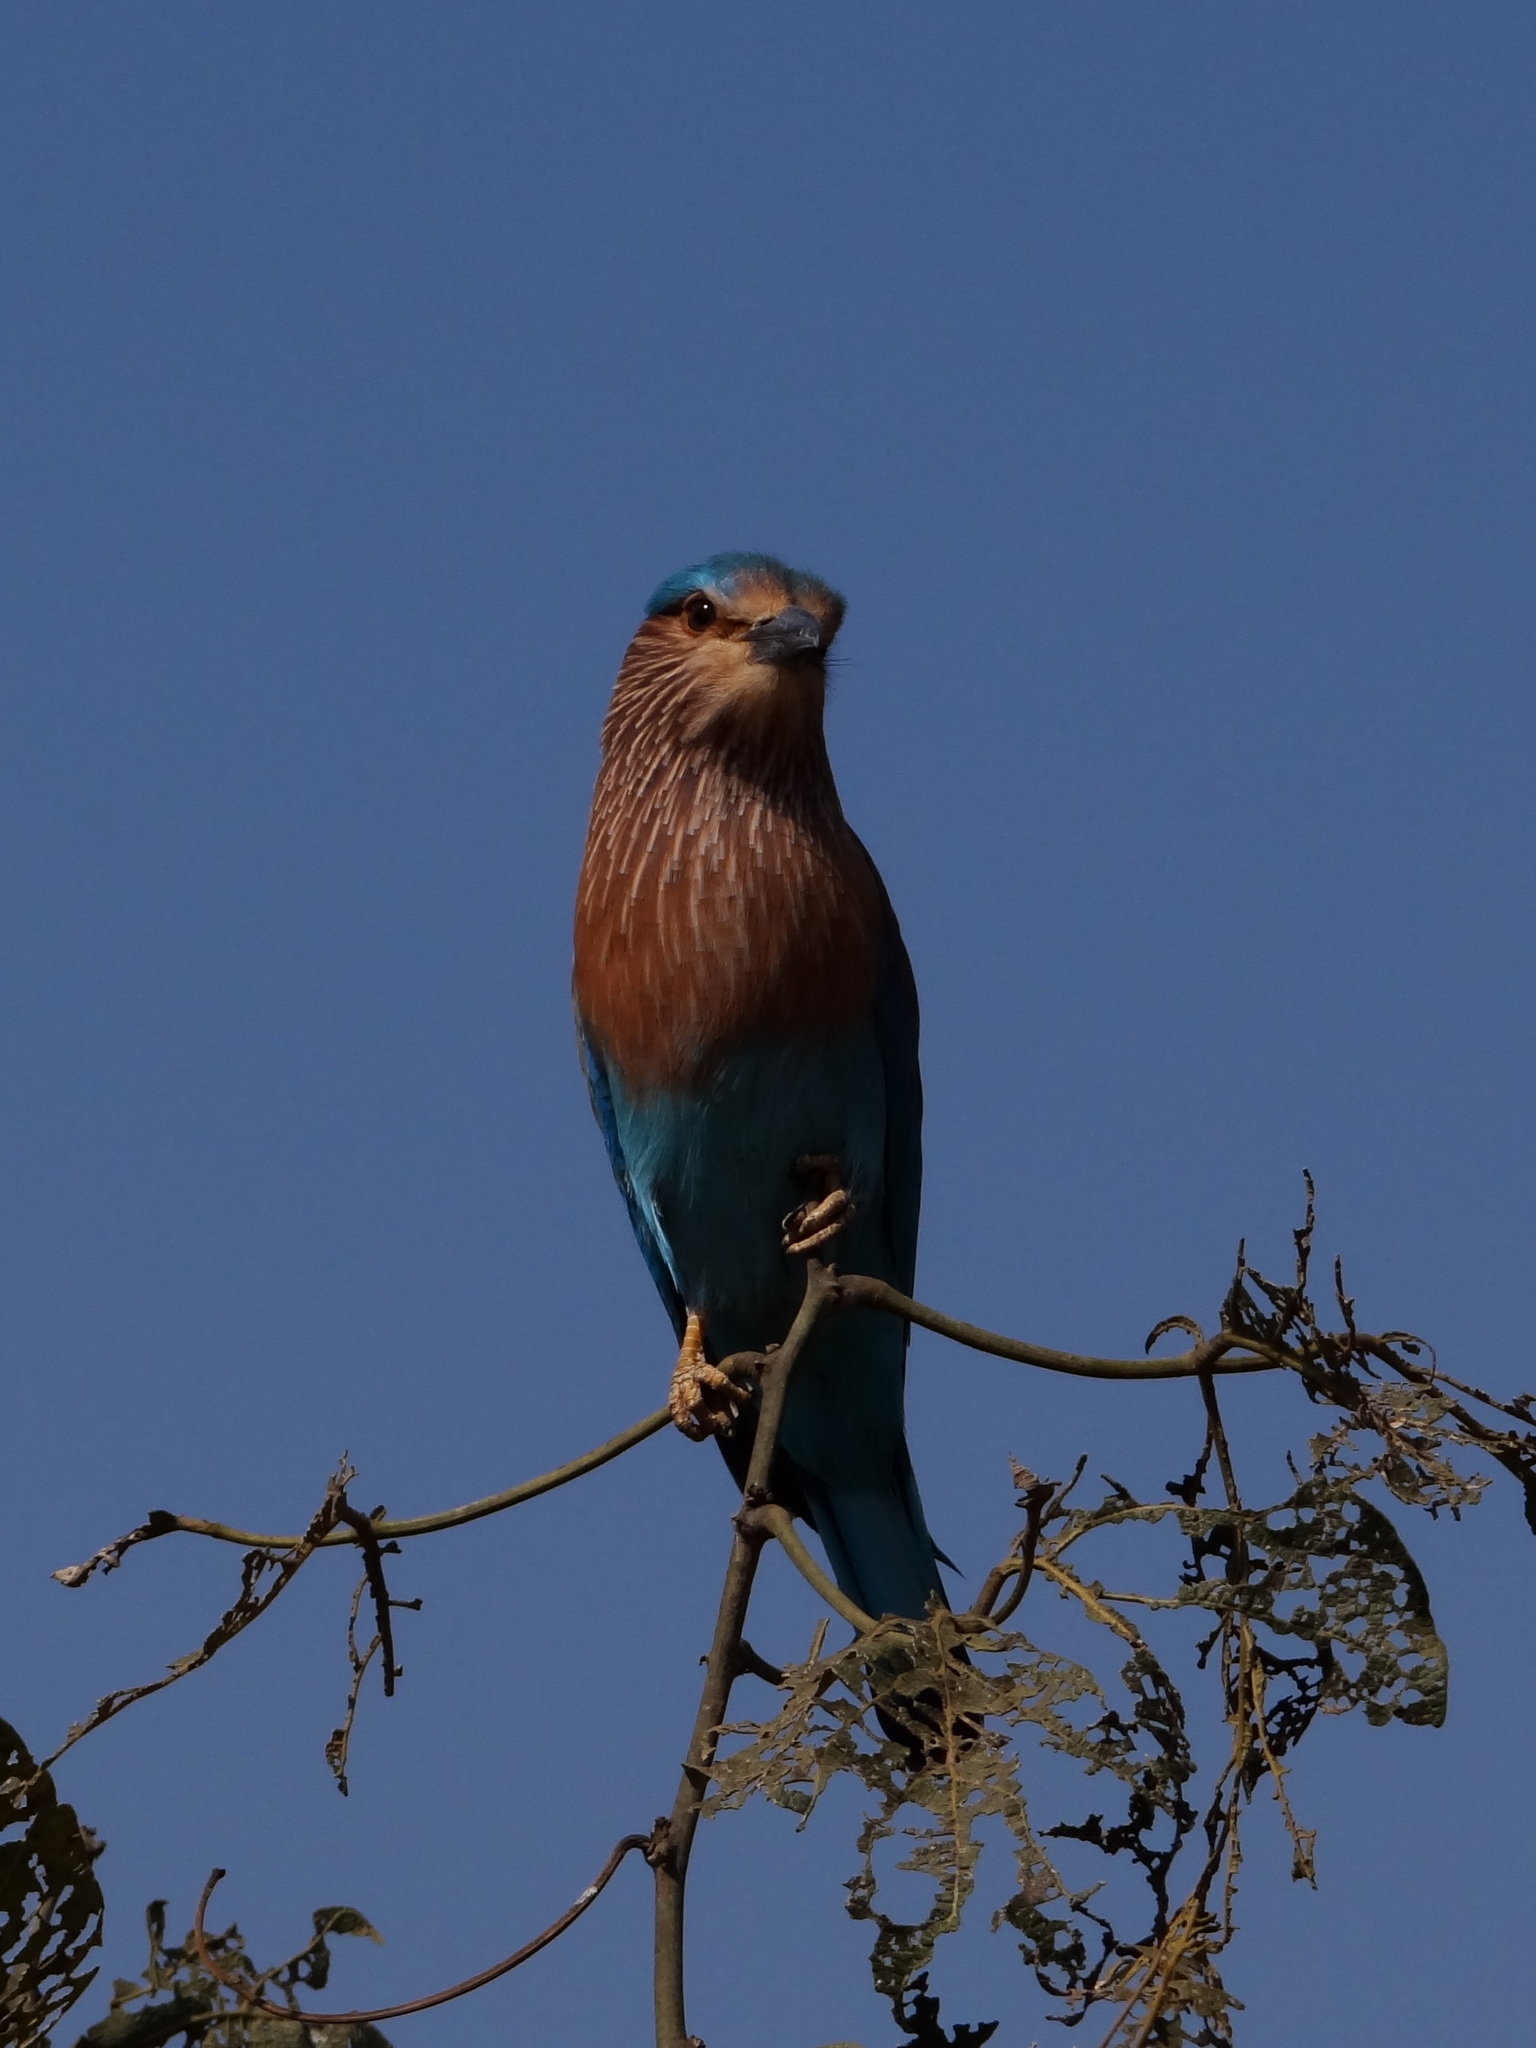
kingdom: Animalia
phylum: Chordata
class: Aves
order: Coraciiformes
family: Coraciidae
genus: Coracias
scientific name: Coracias benghalensis
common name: Indian roller
